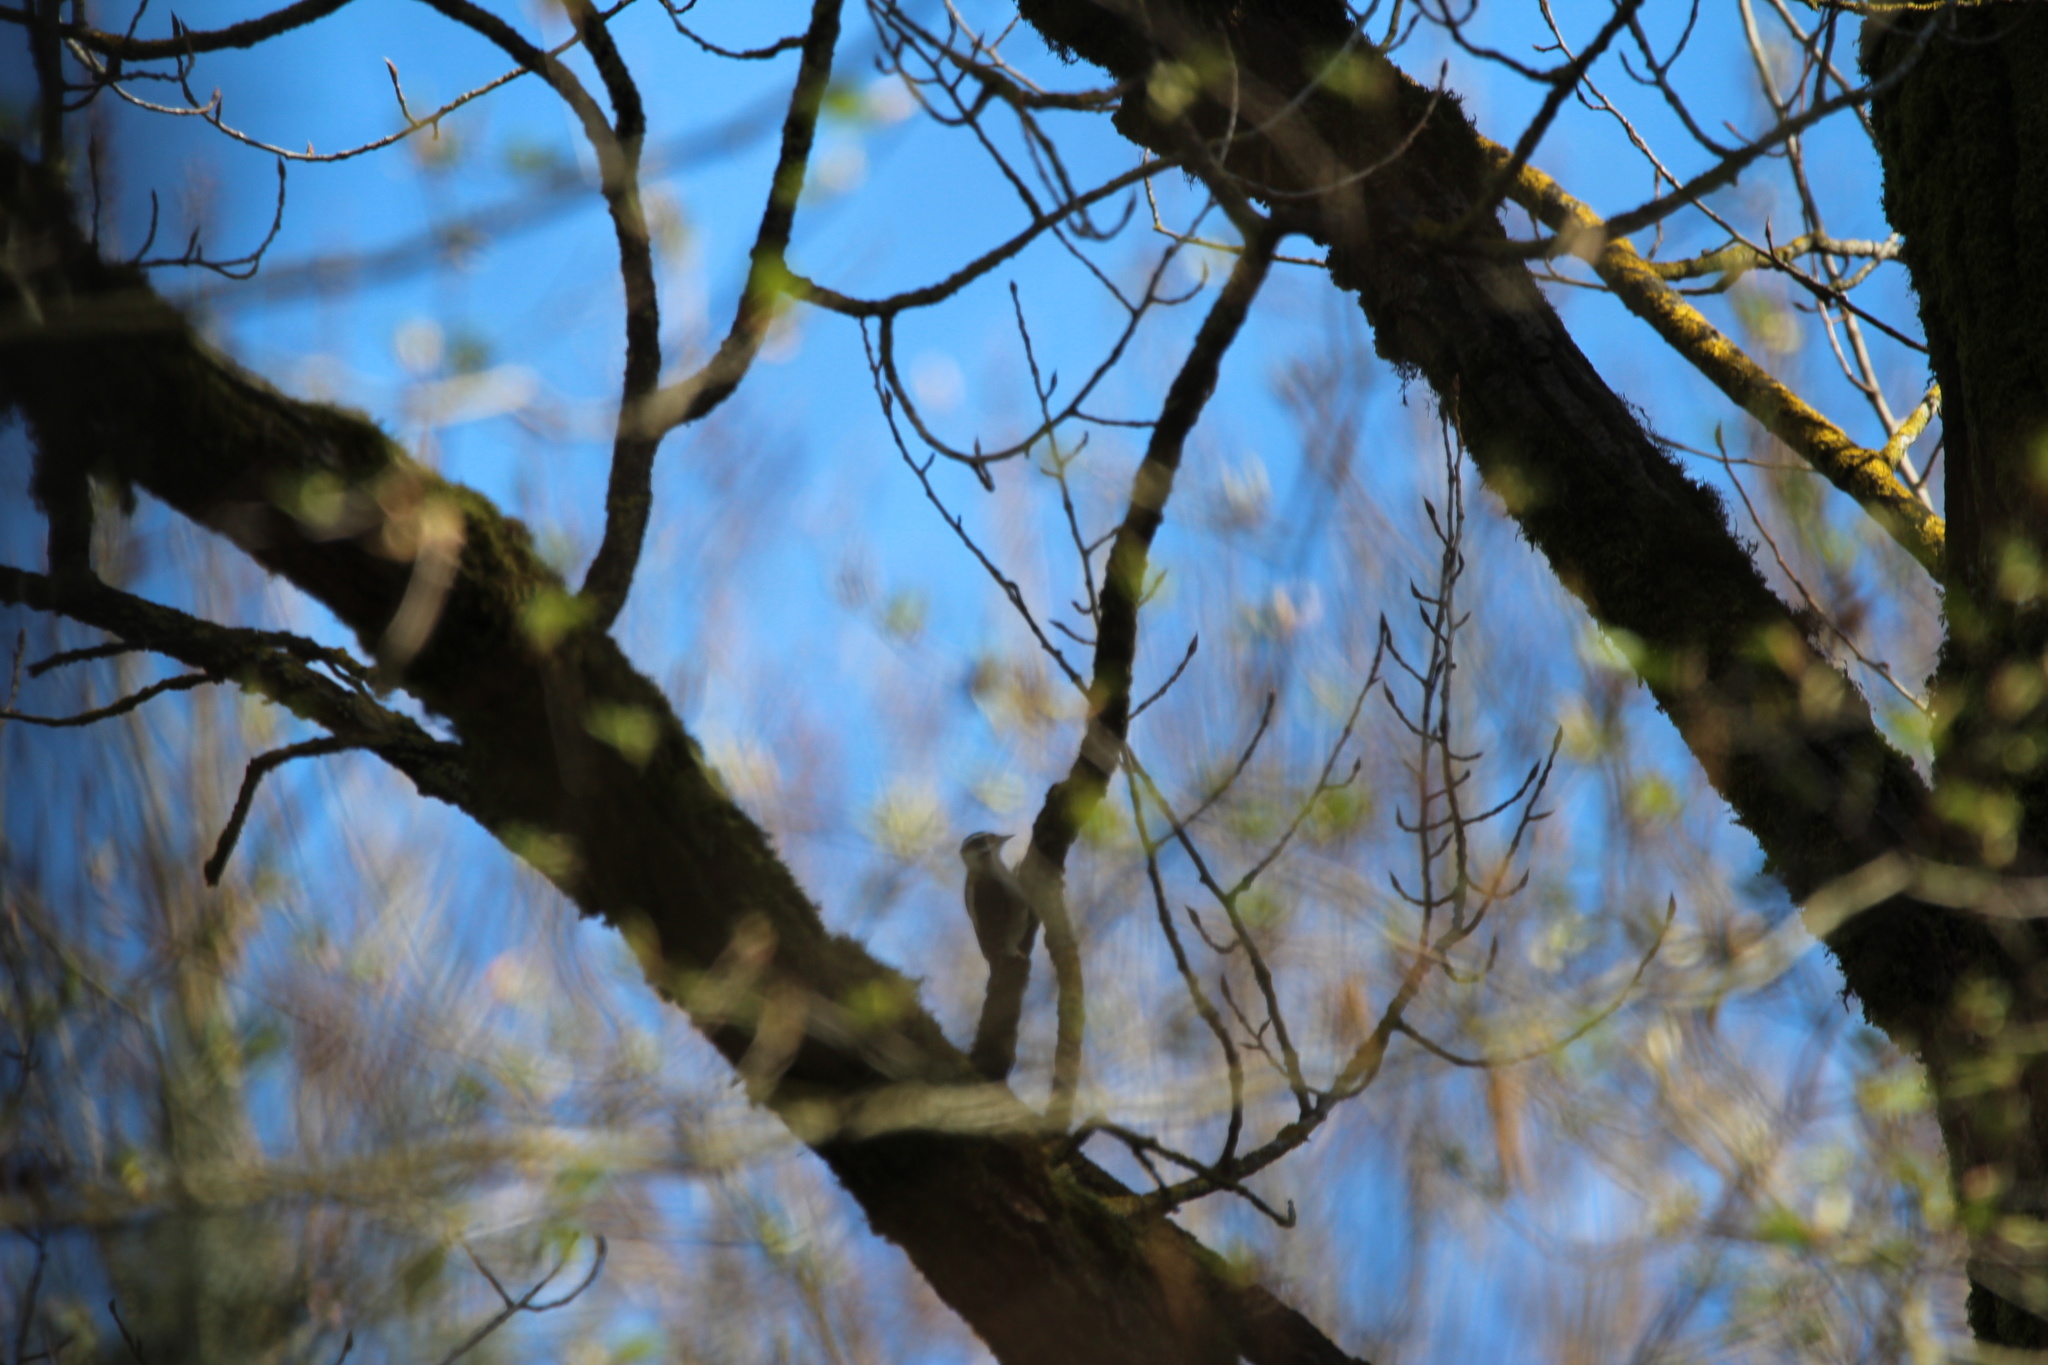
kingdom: Animalia
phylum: Chordata
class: Aves
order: Piciformes
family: Picidae
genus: Dryobates
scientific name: Dryobates pubescens
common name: Downy woodpecker
